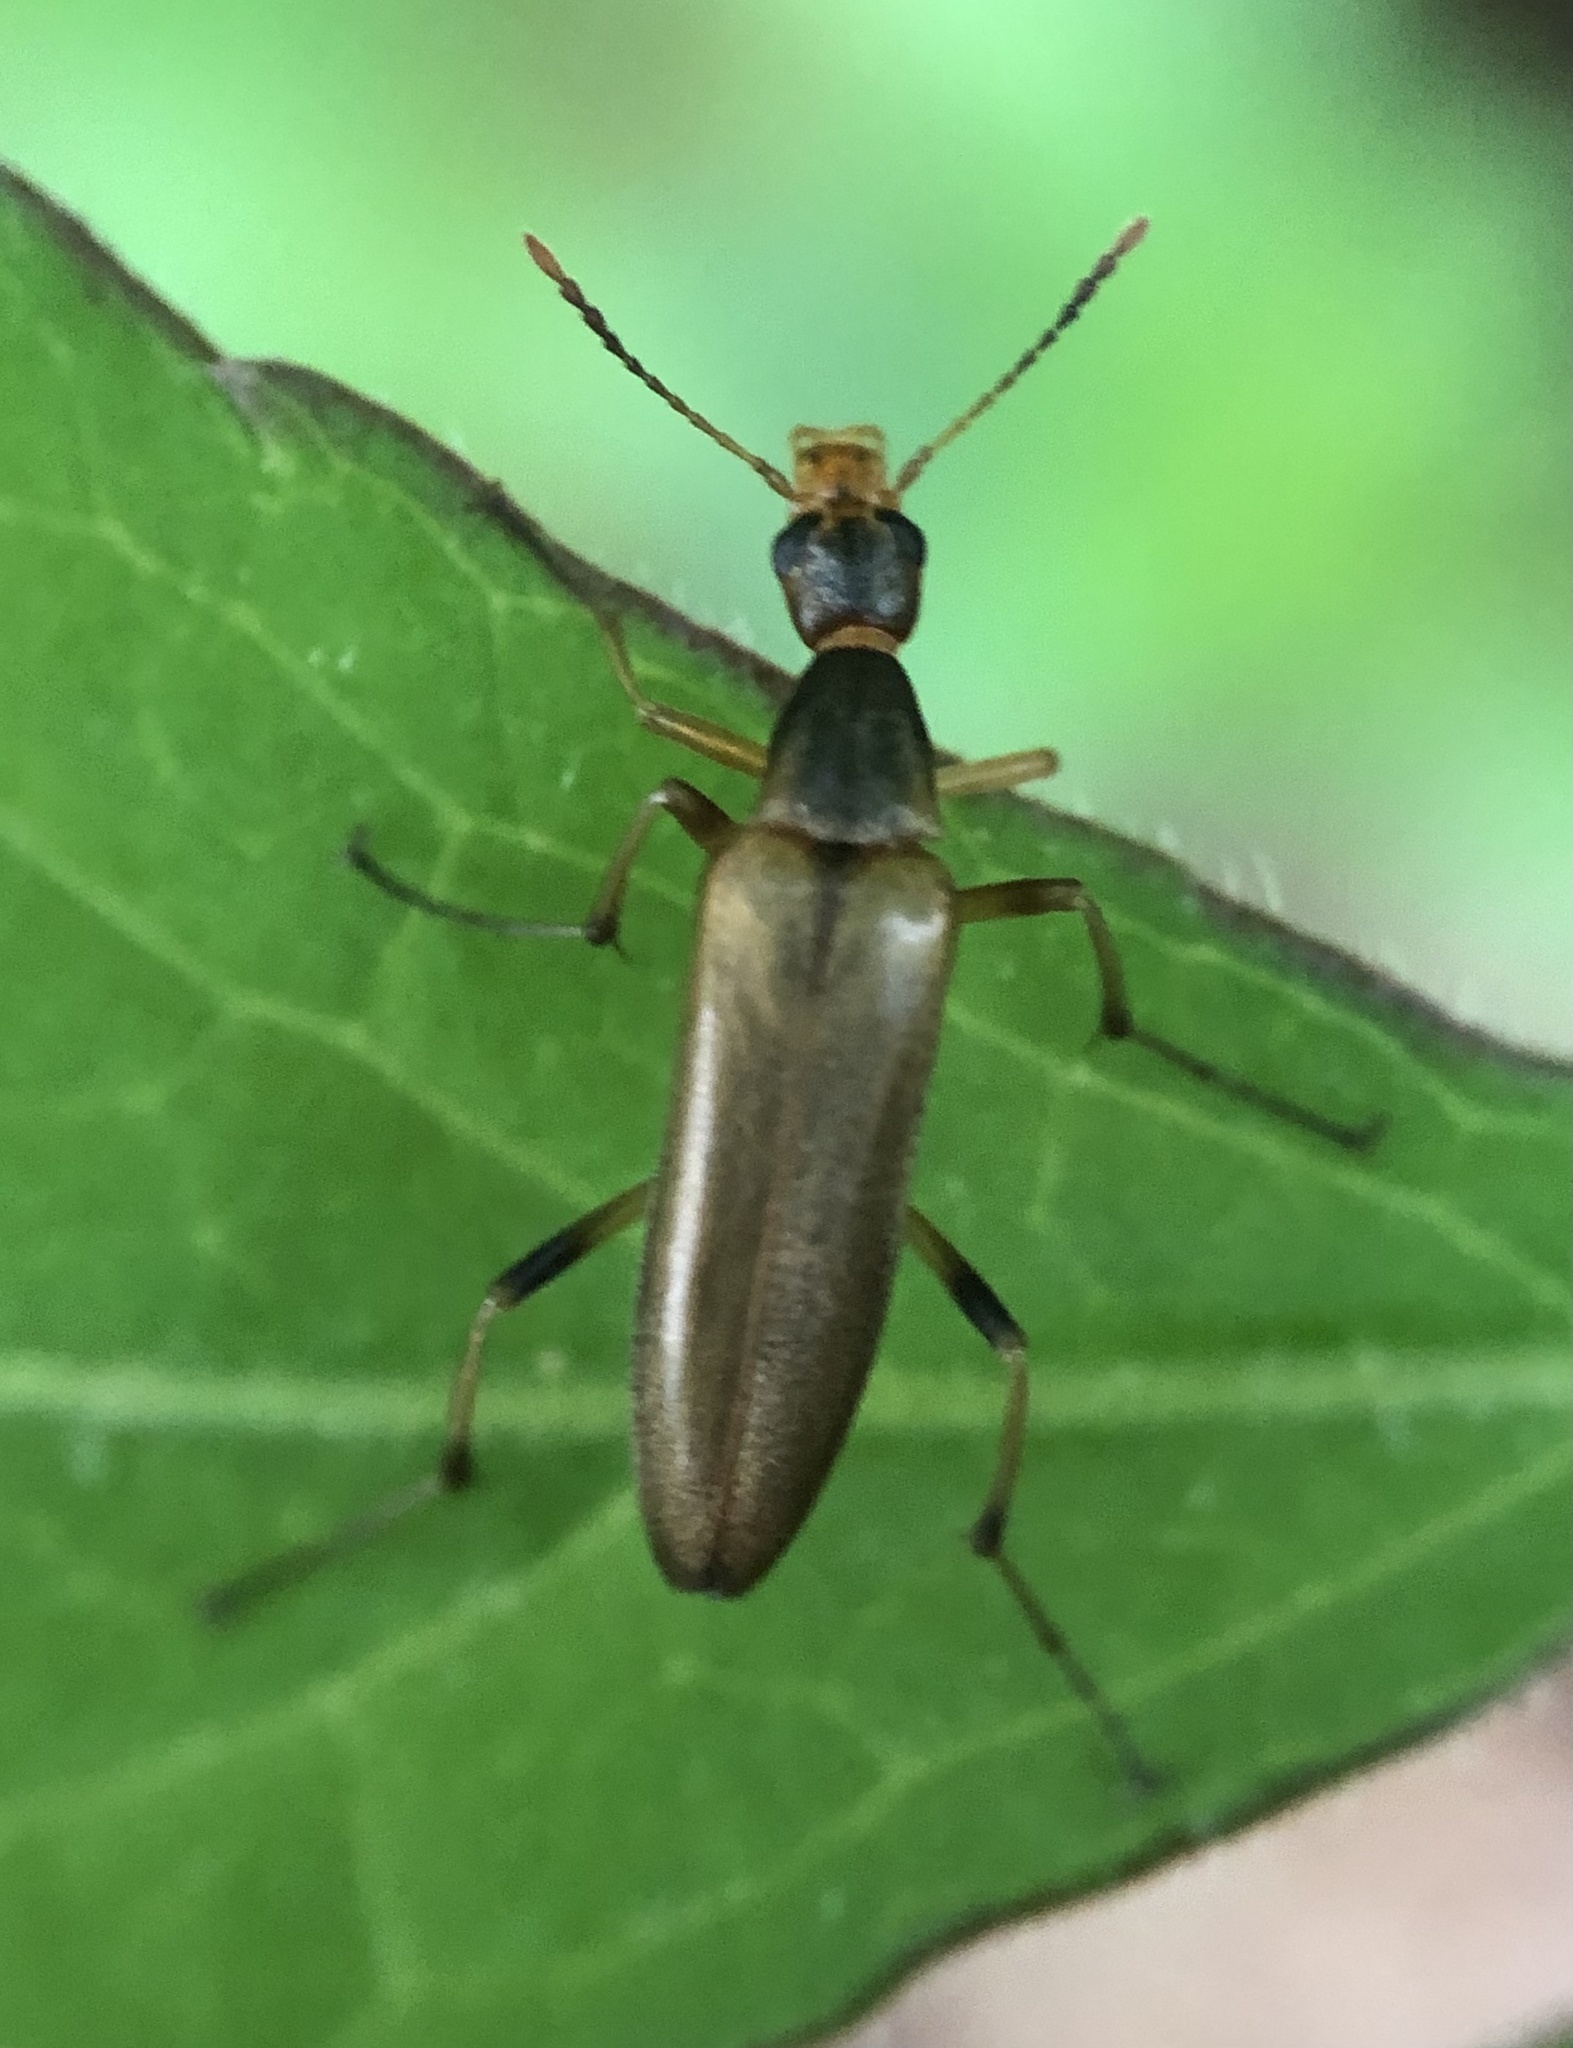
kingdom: Animalia
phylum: Arthropoda
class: Insecta
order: Coleoptera
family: Stenotrachelidae
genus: Cephaloon
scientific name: Cephaloon lepturides
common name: False leptura beetle
